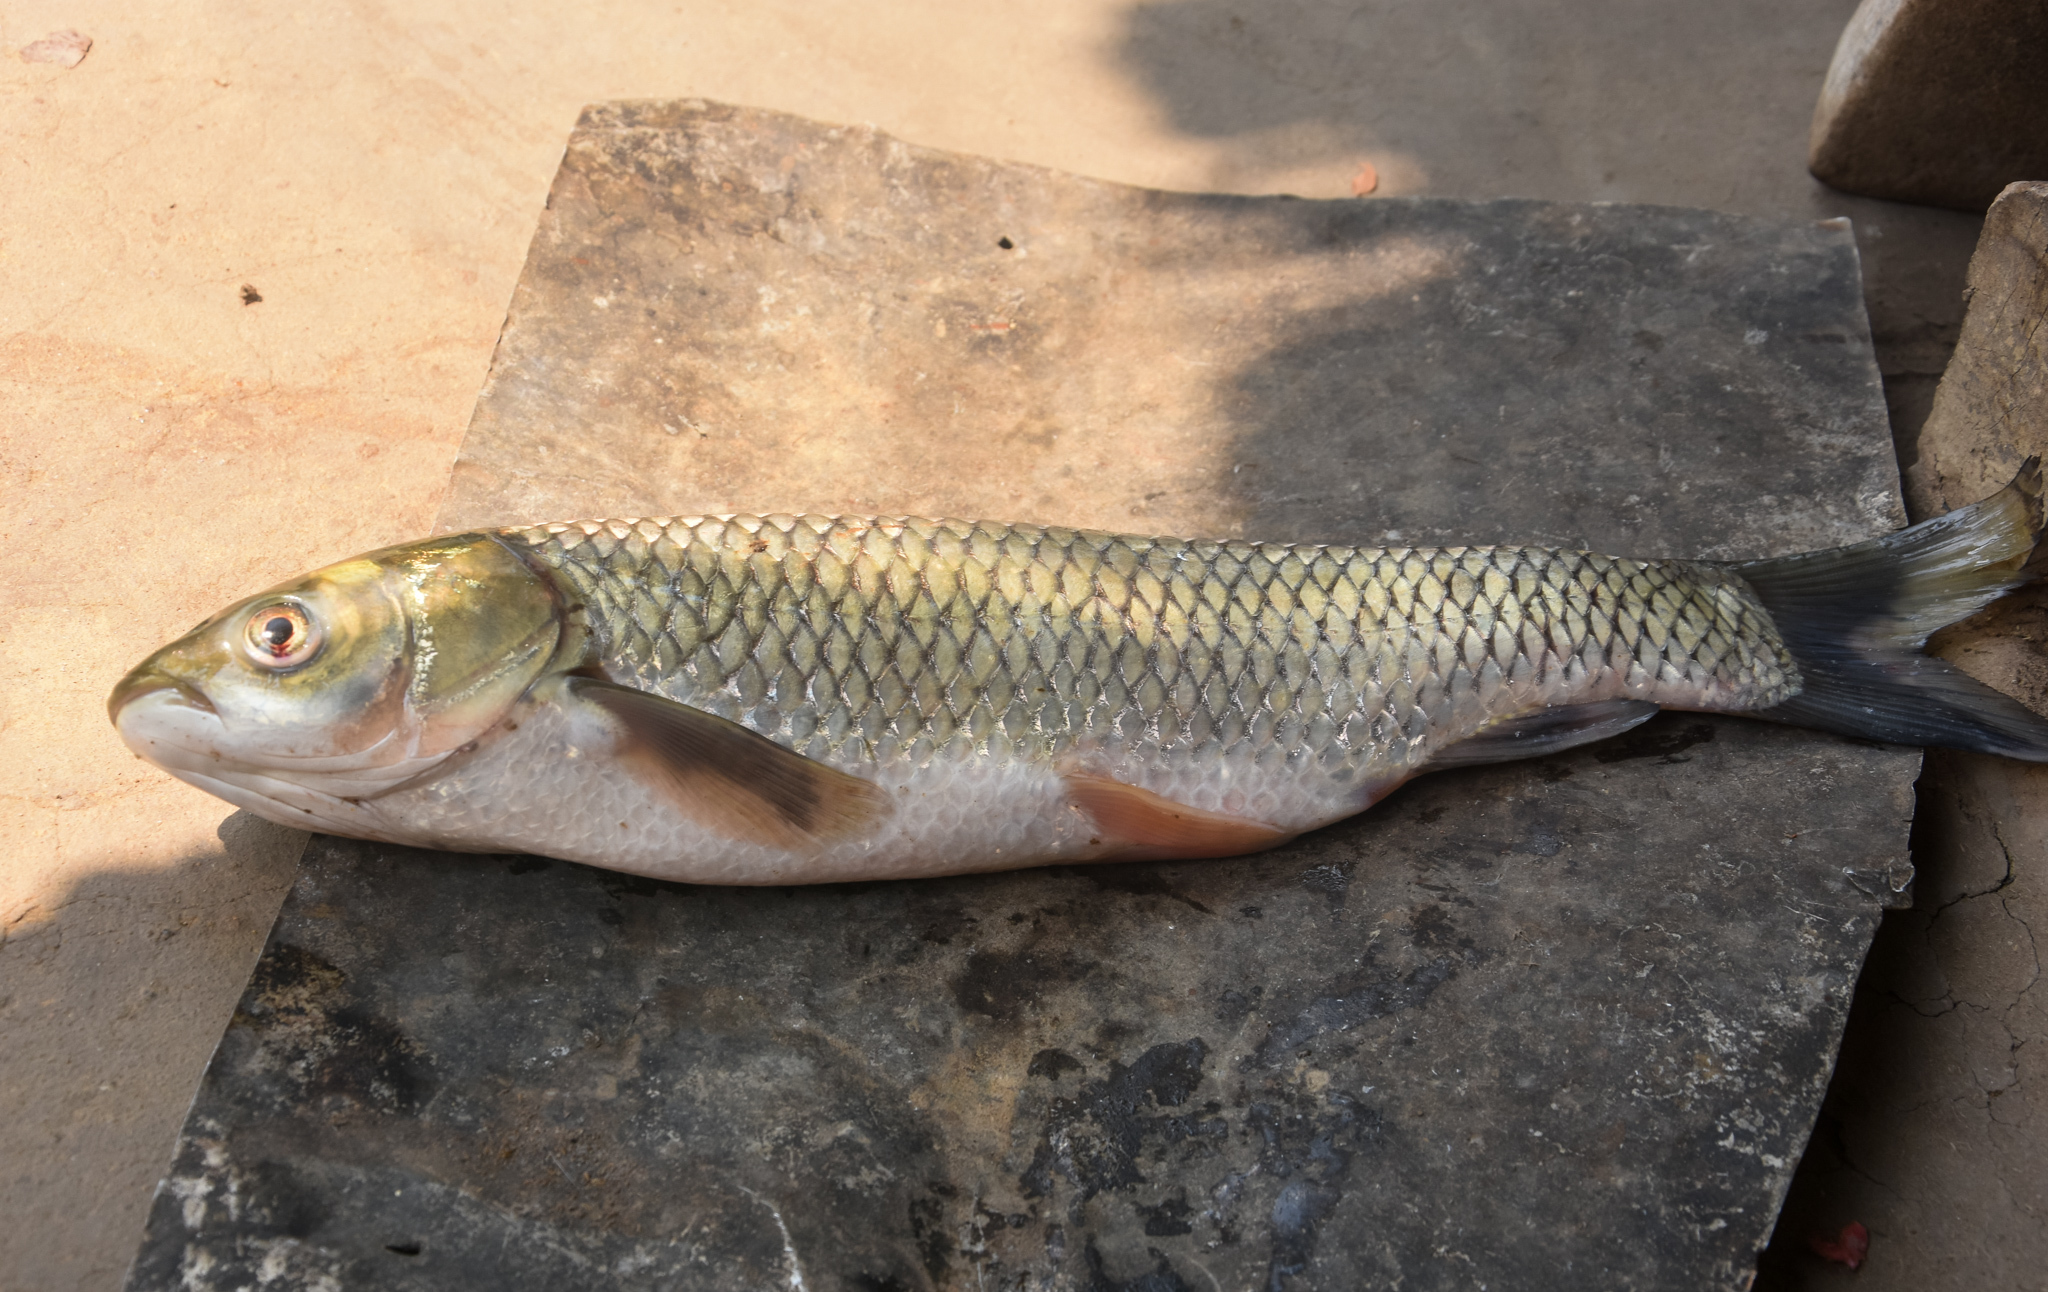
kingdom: Animalia
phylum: Chordata
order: Cypriniformes
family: Cyprinidae
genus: Ctenopharyngodon
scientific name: Ctenopharyngodon idella
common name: Grass carp
